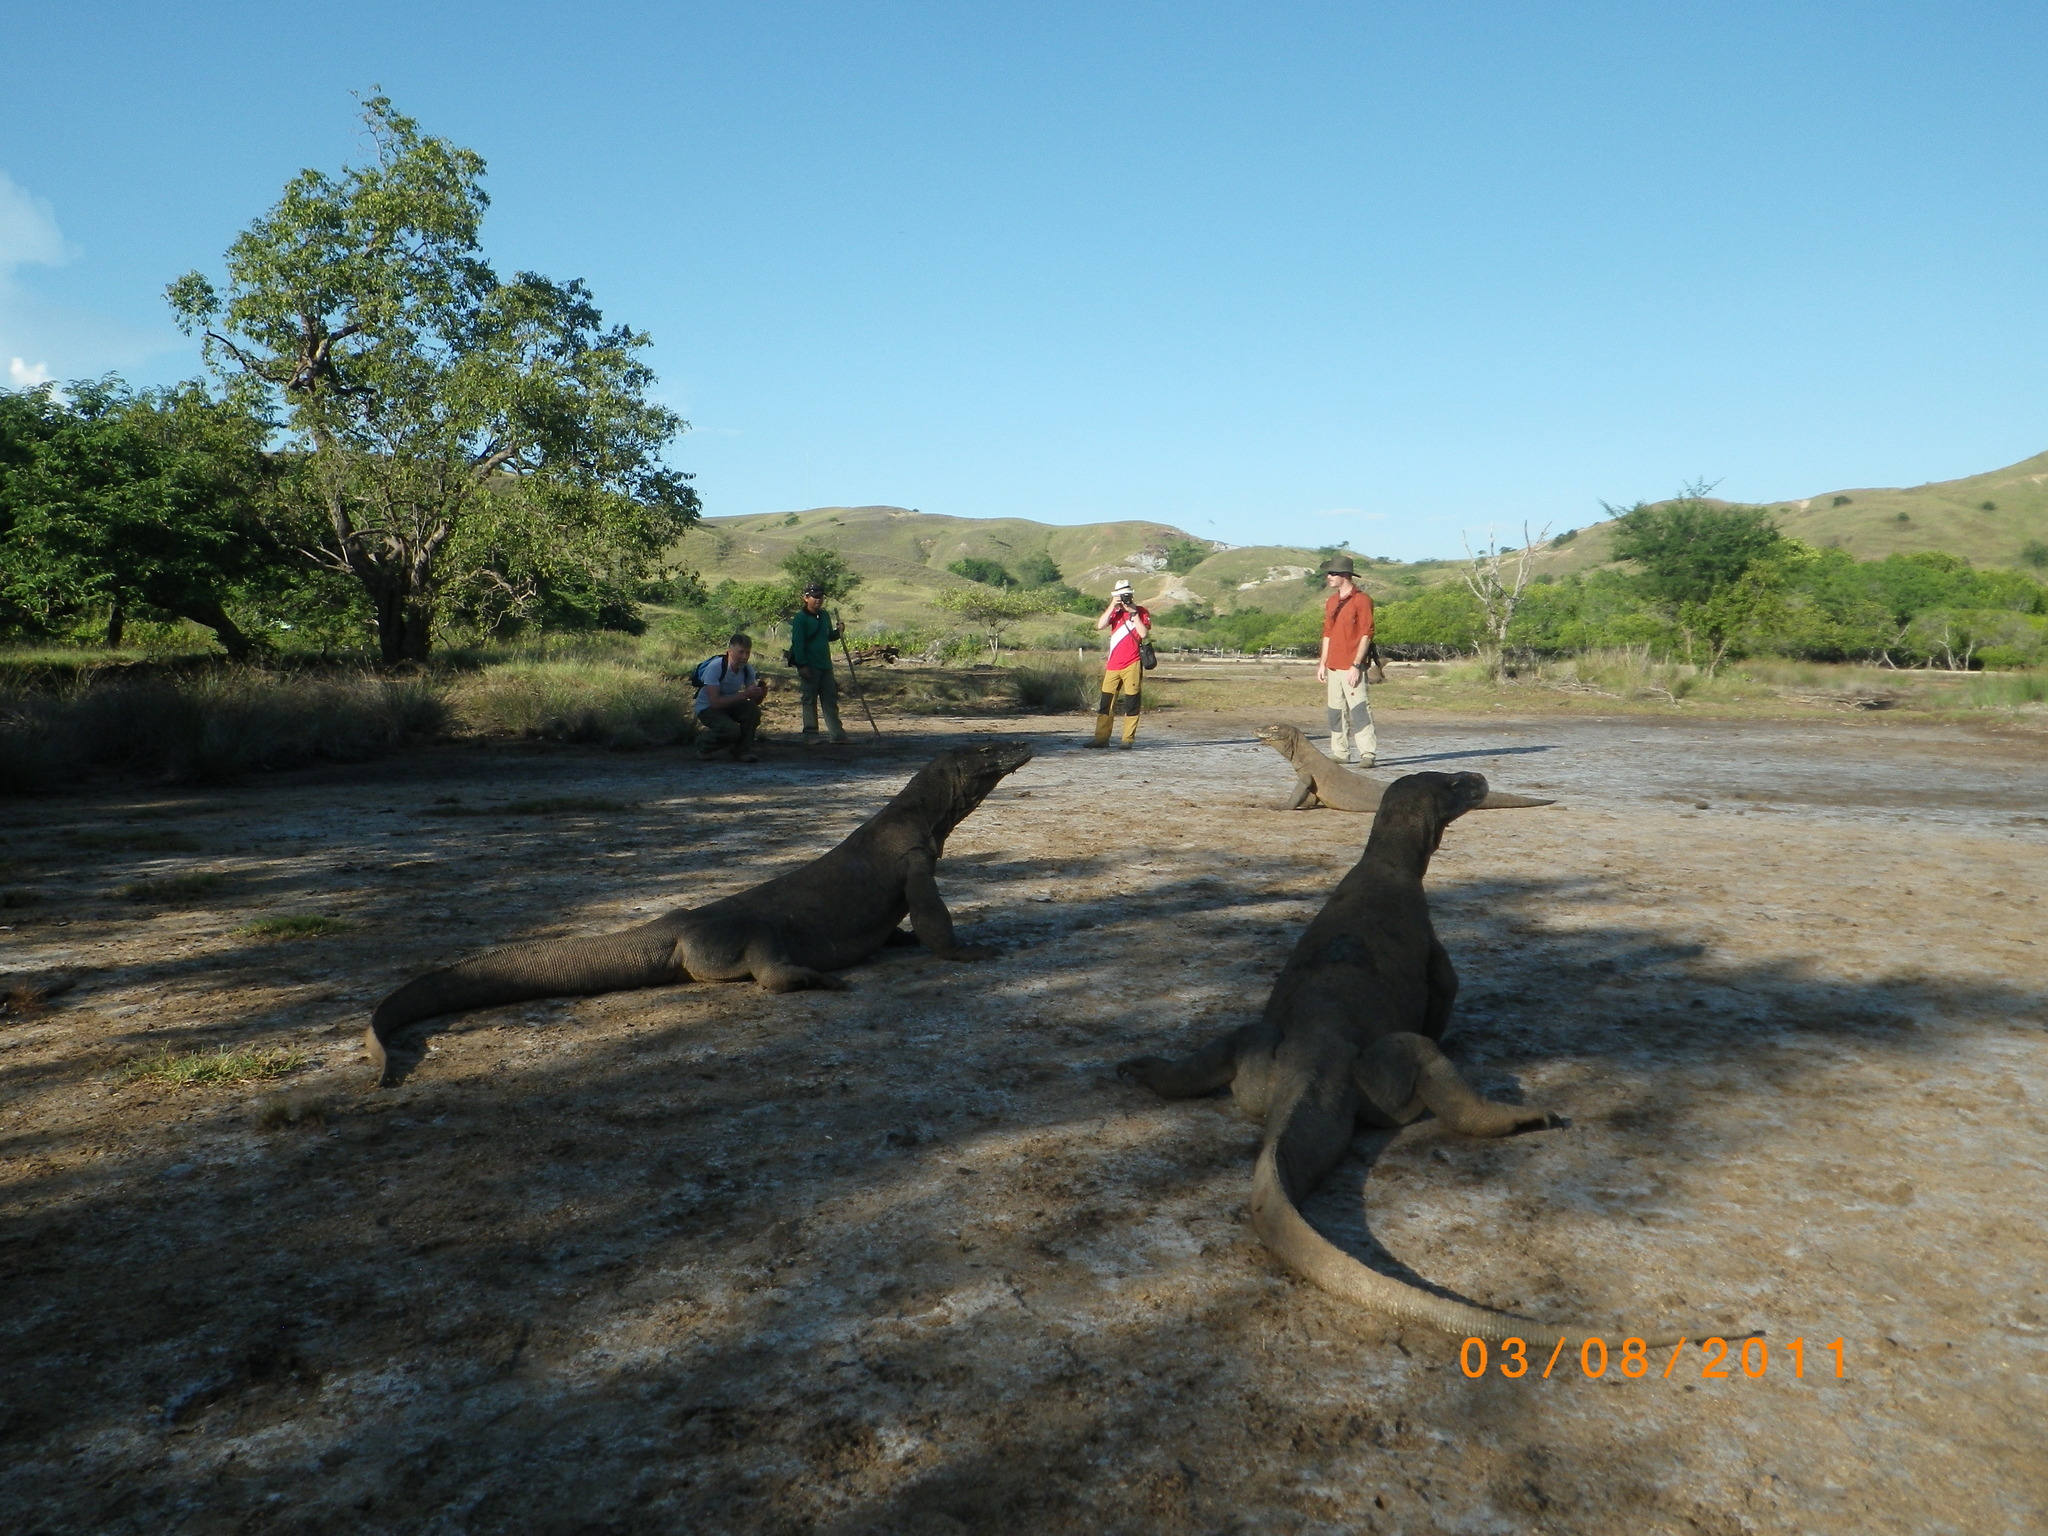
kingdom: Animalia
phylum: Chordata
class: Squamata
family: Varanidae
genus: Varanus
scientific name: Varanus komodoensis
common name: Komodo dragon
